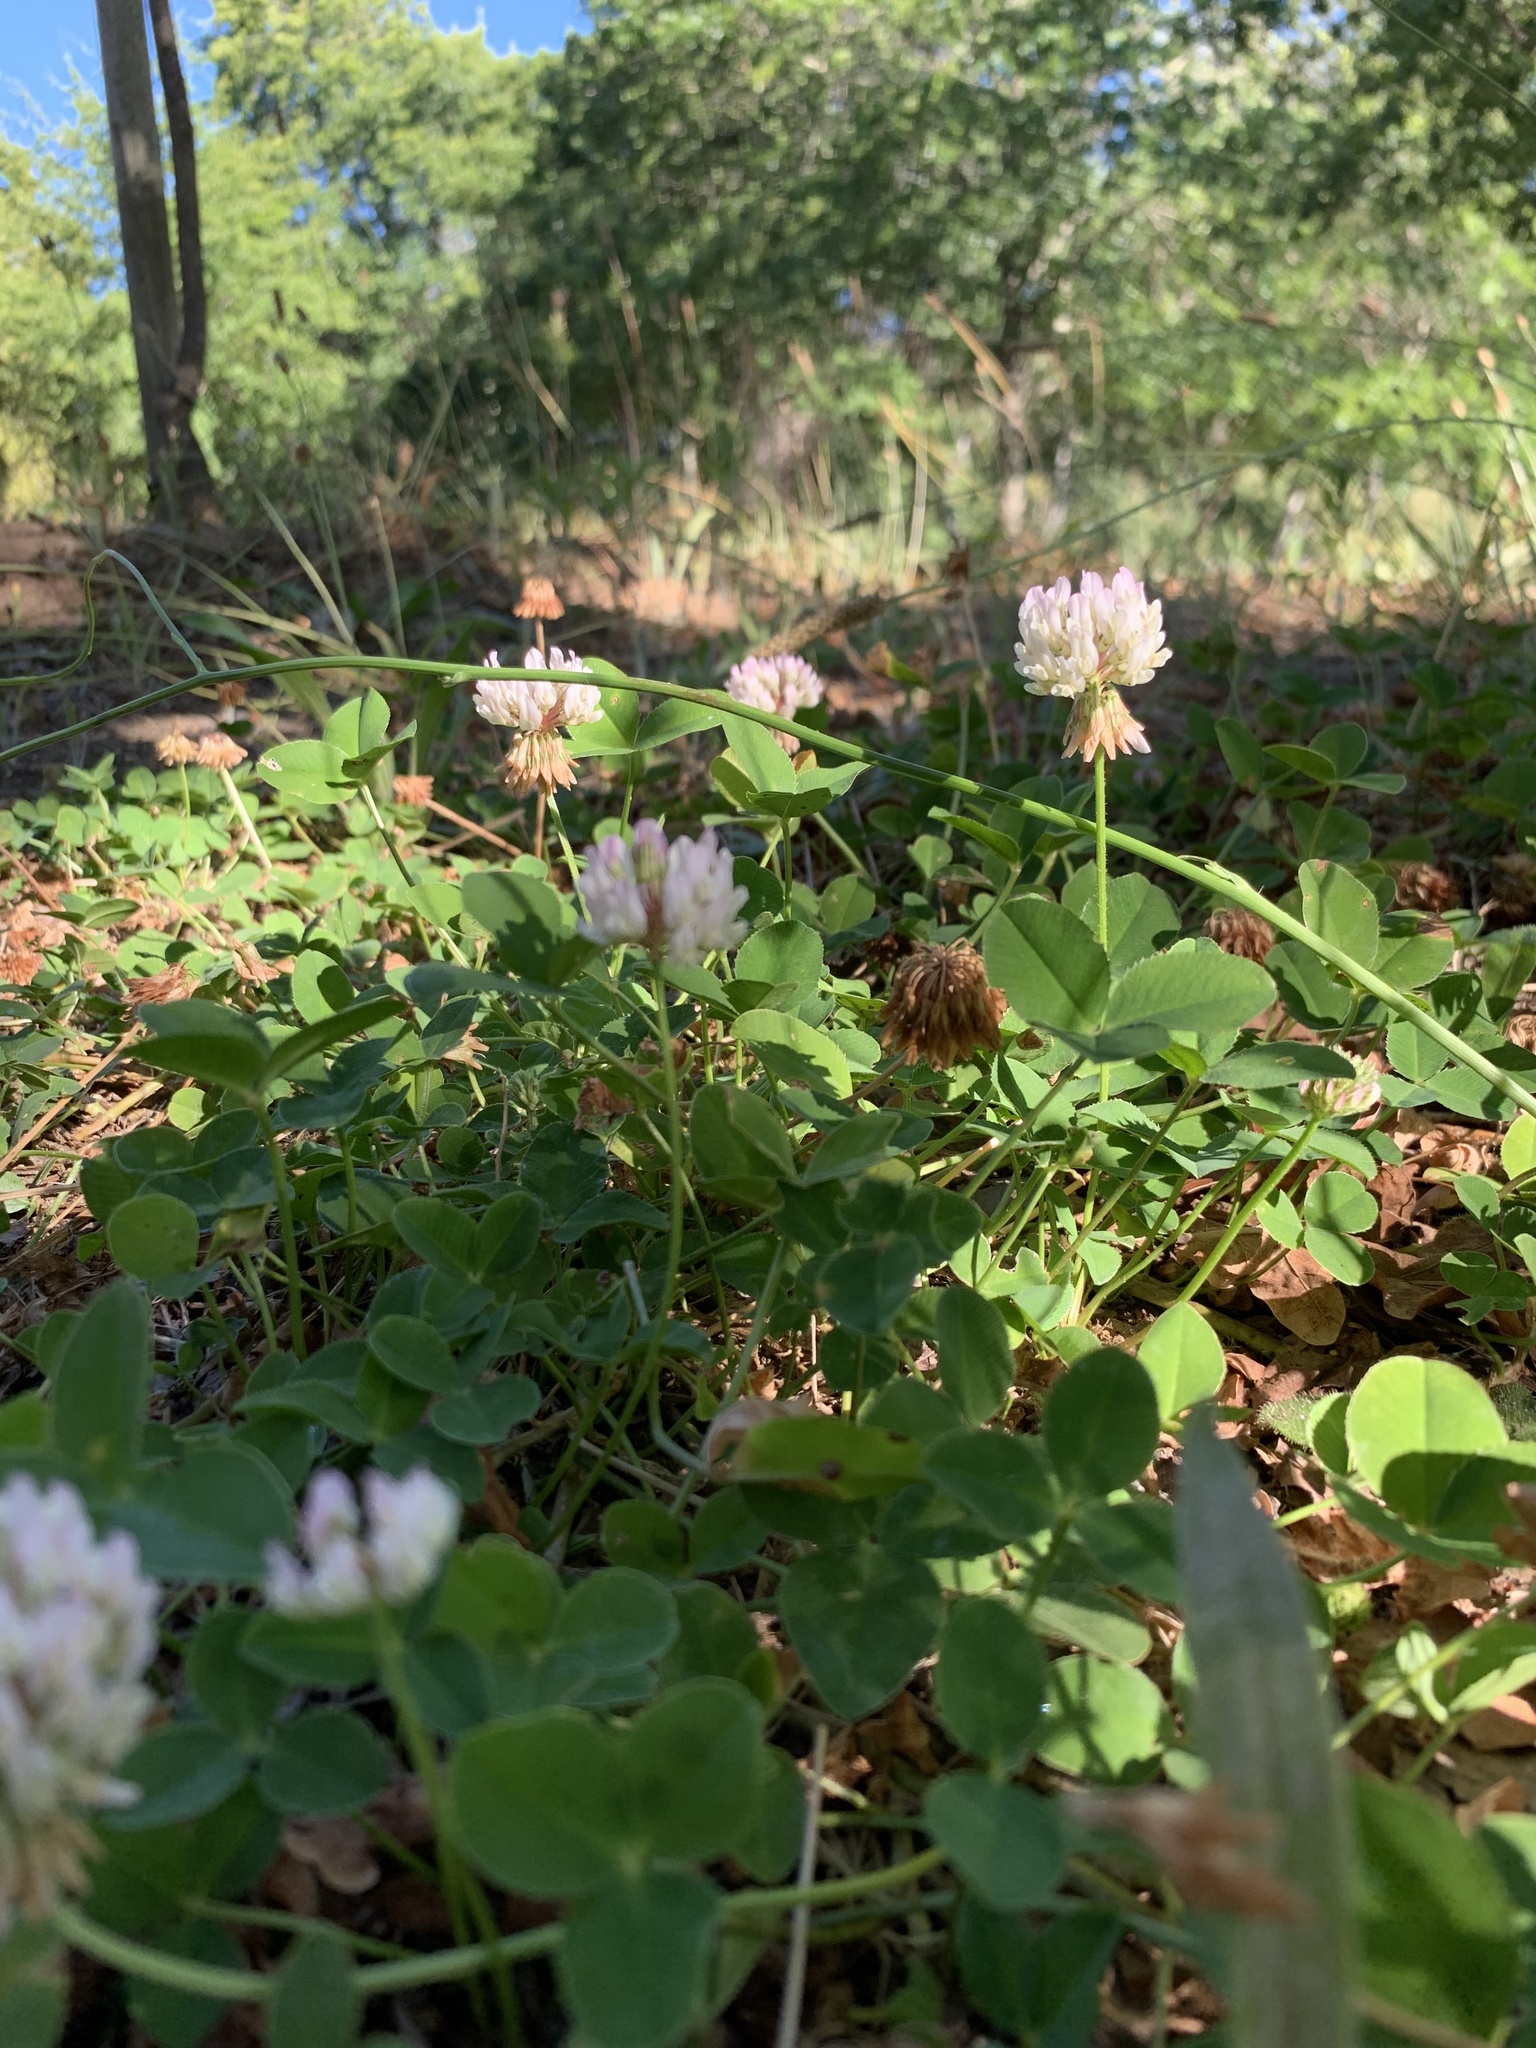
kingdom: Plantae
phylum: Tracheophyta
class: Magnoliopsida
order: Fabales
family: Fabaceae
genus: Trifolium
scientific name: Trifolium repens
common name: White clover
